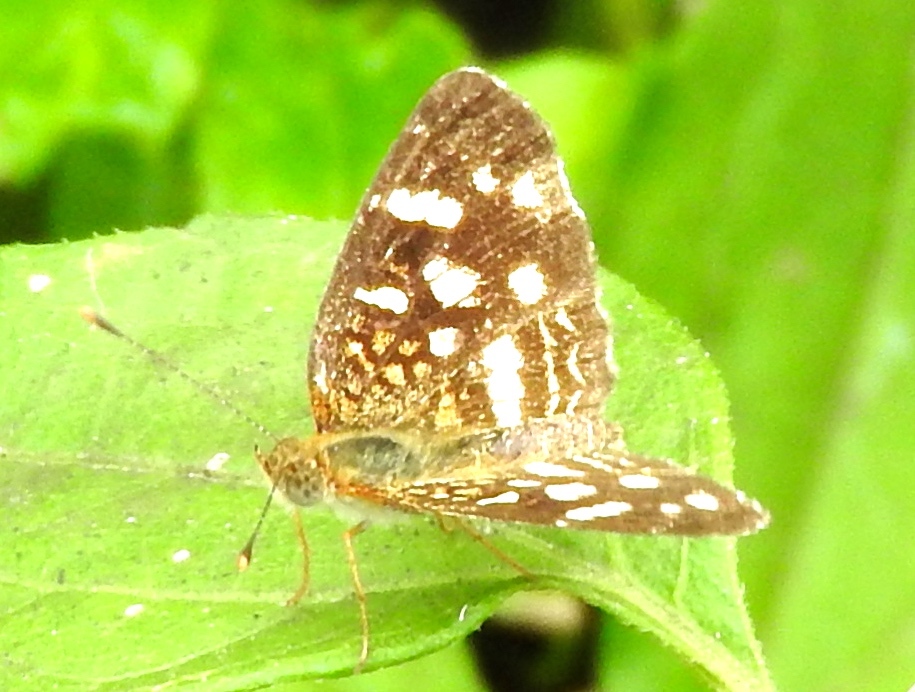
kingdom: Animalia
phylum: Arthropoda
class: Insecta
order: Lepidoptera
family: Nymphalidae
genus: Anthanassa
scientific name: Anthanassa
